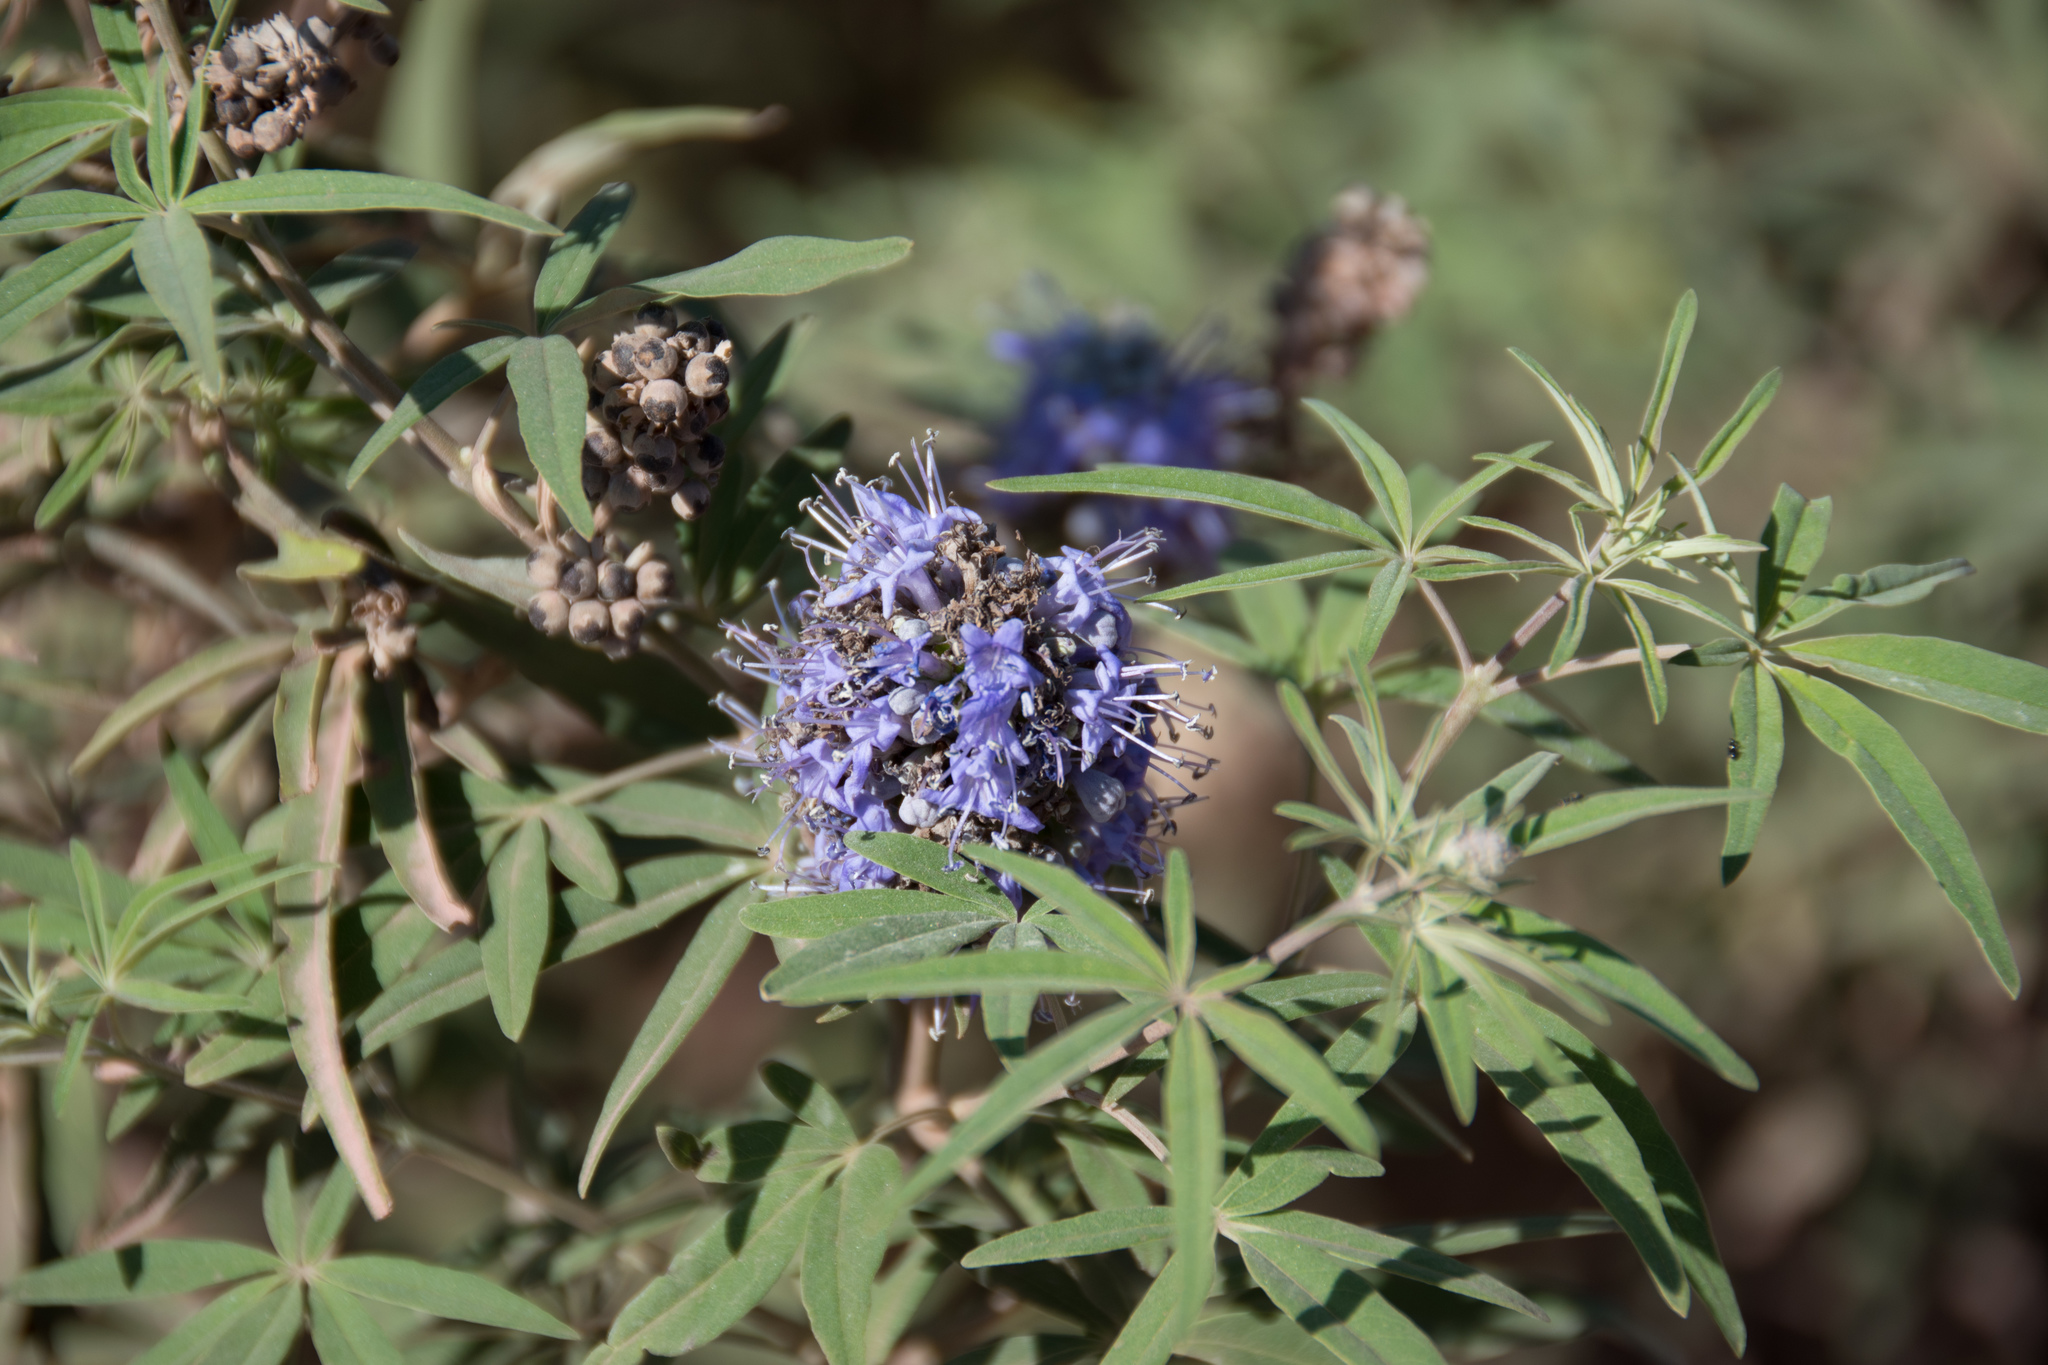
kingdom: Plantae
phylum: Tracheophyta
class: Magnoliopsida
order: Lamiales
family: Lamiaceae
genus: Vitex
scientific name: Vitex agnus-castus
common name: Chasteberry
